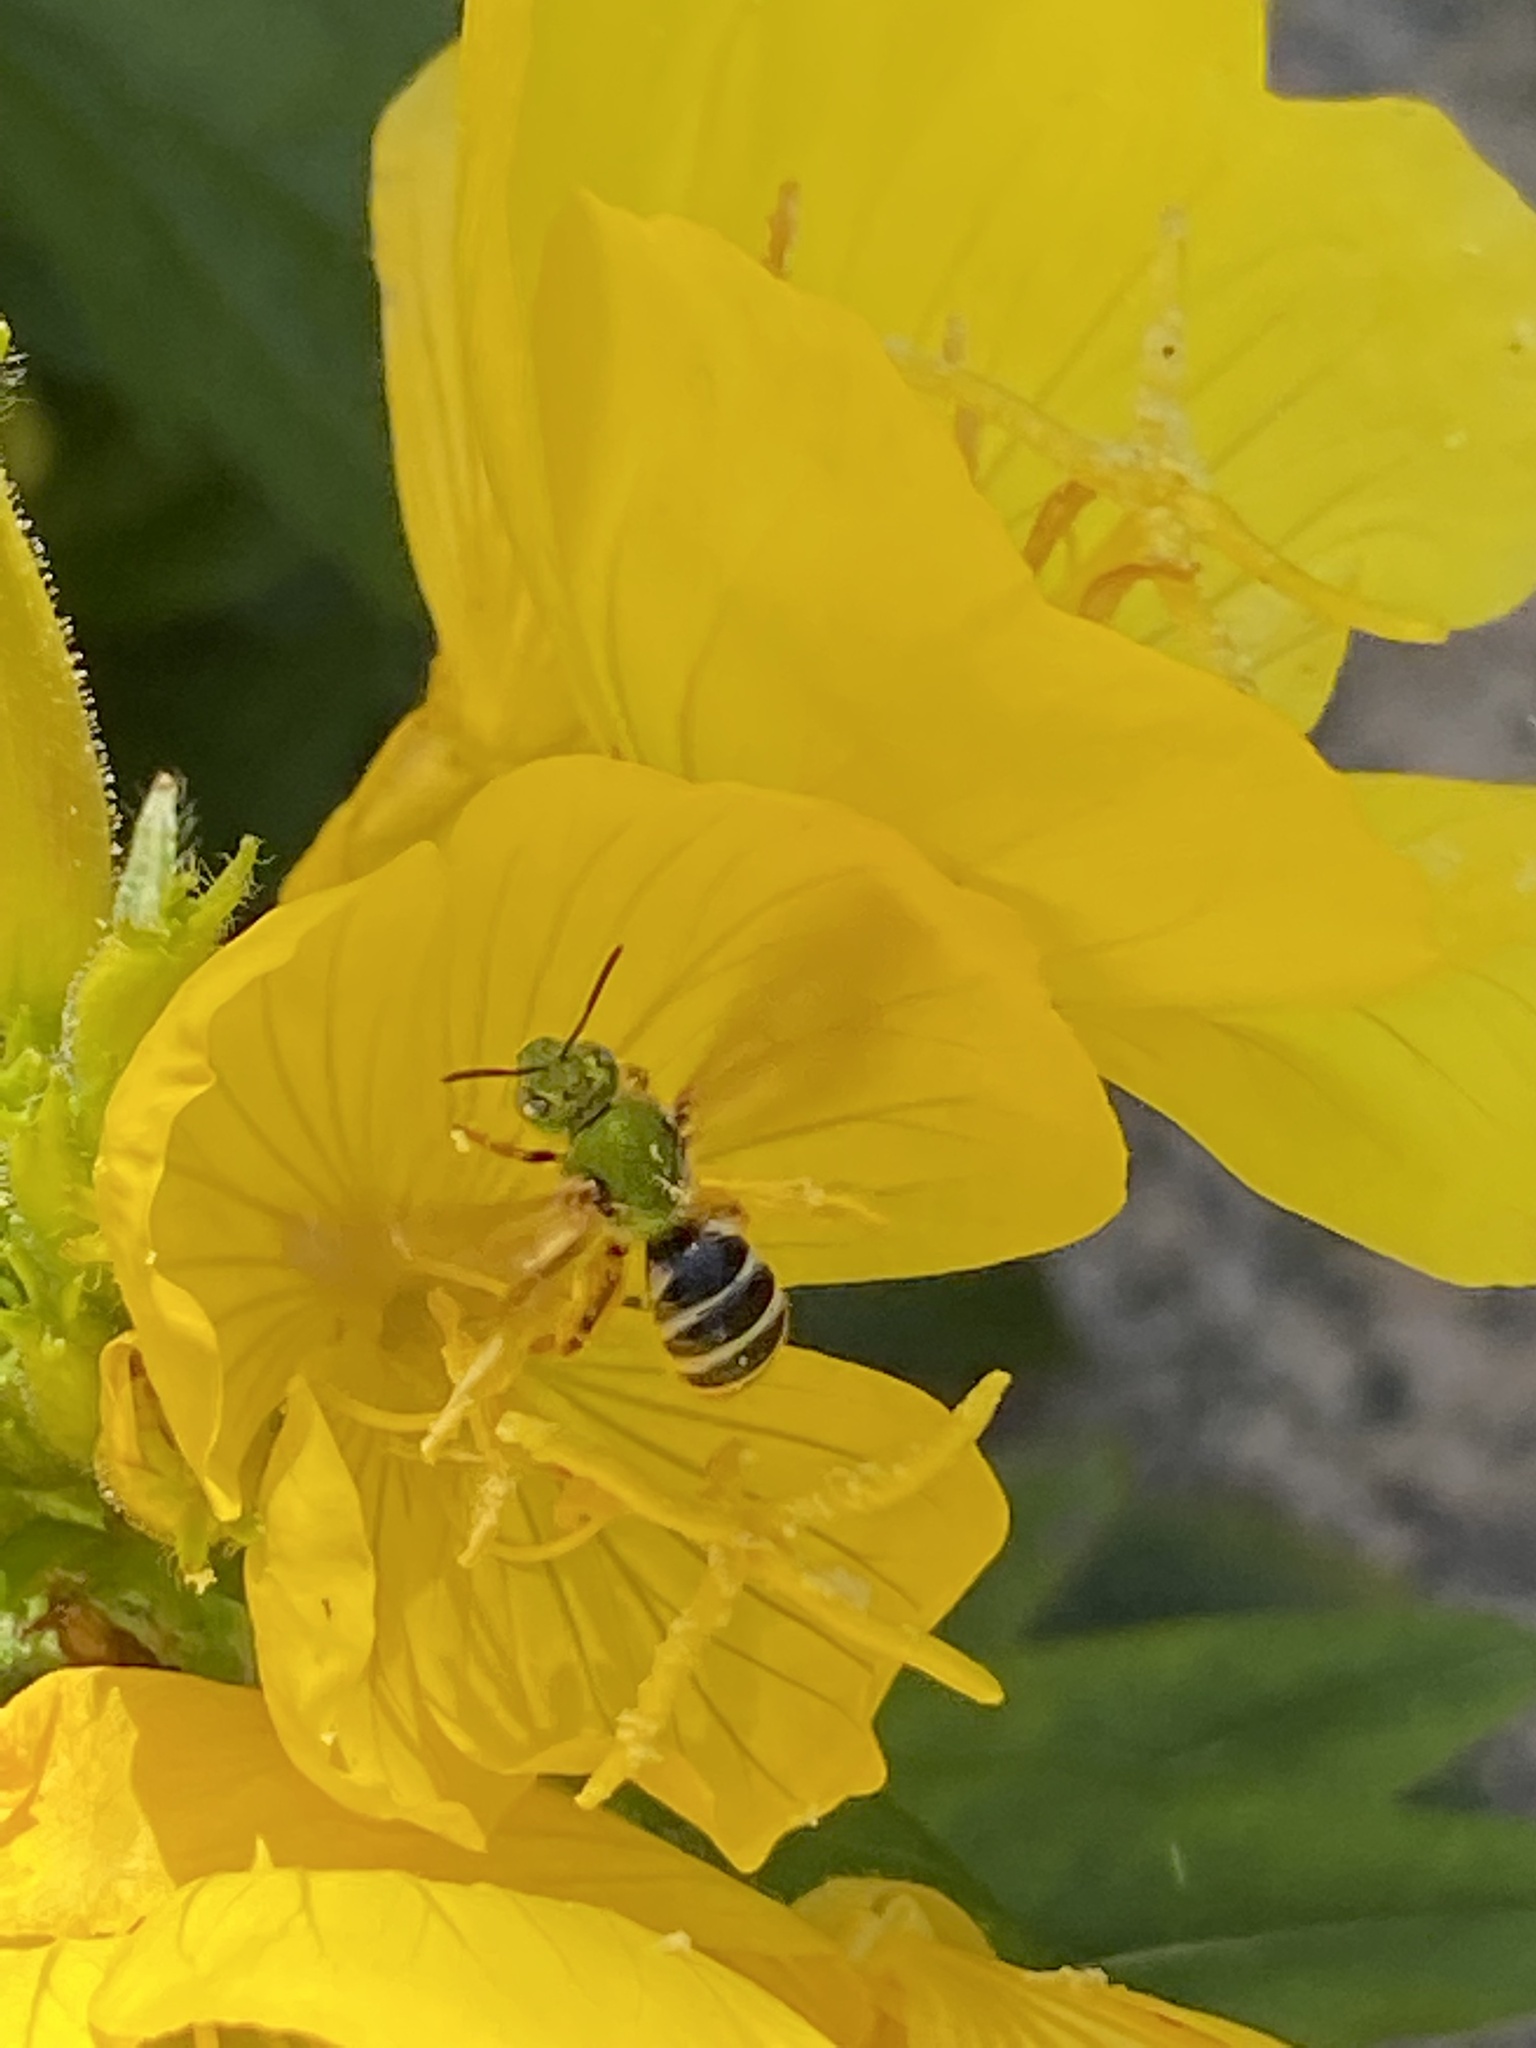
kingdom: Animalia
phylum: Arthropoda
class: Insecta
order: Hymenoptera
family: Halictidae
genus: Agapostemon
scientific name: Agapostemon virescens
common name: Bicolored striped sweat bee
